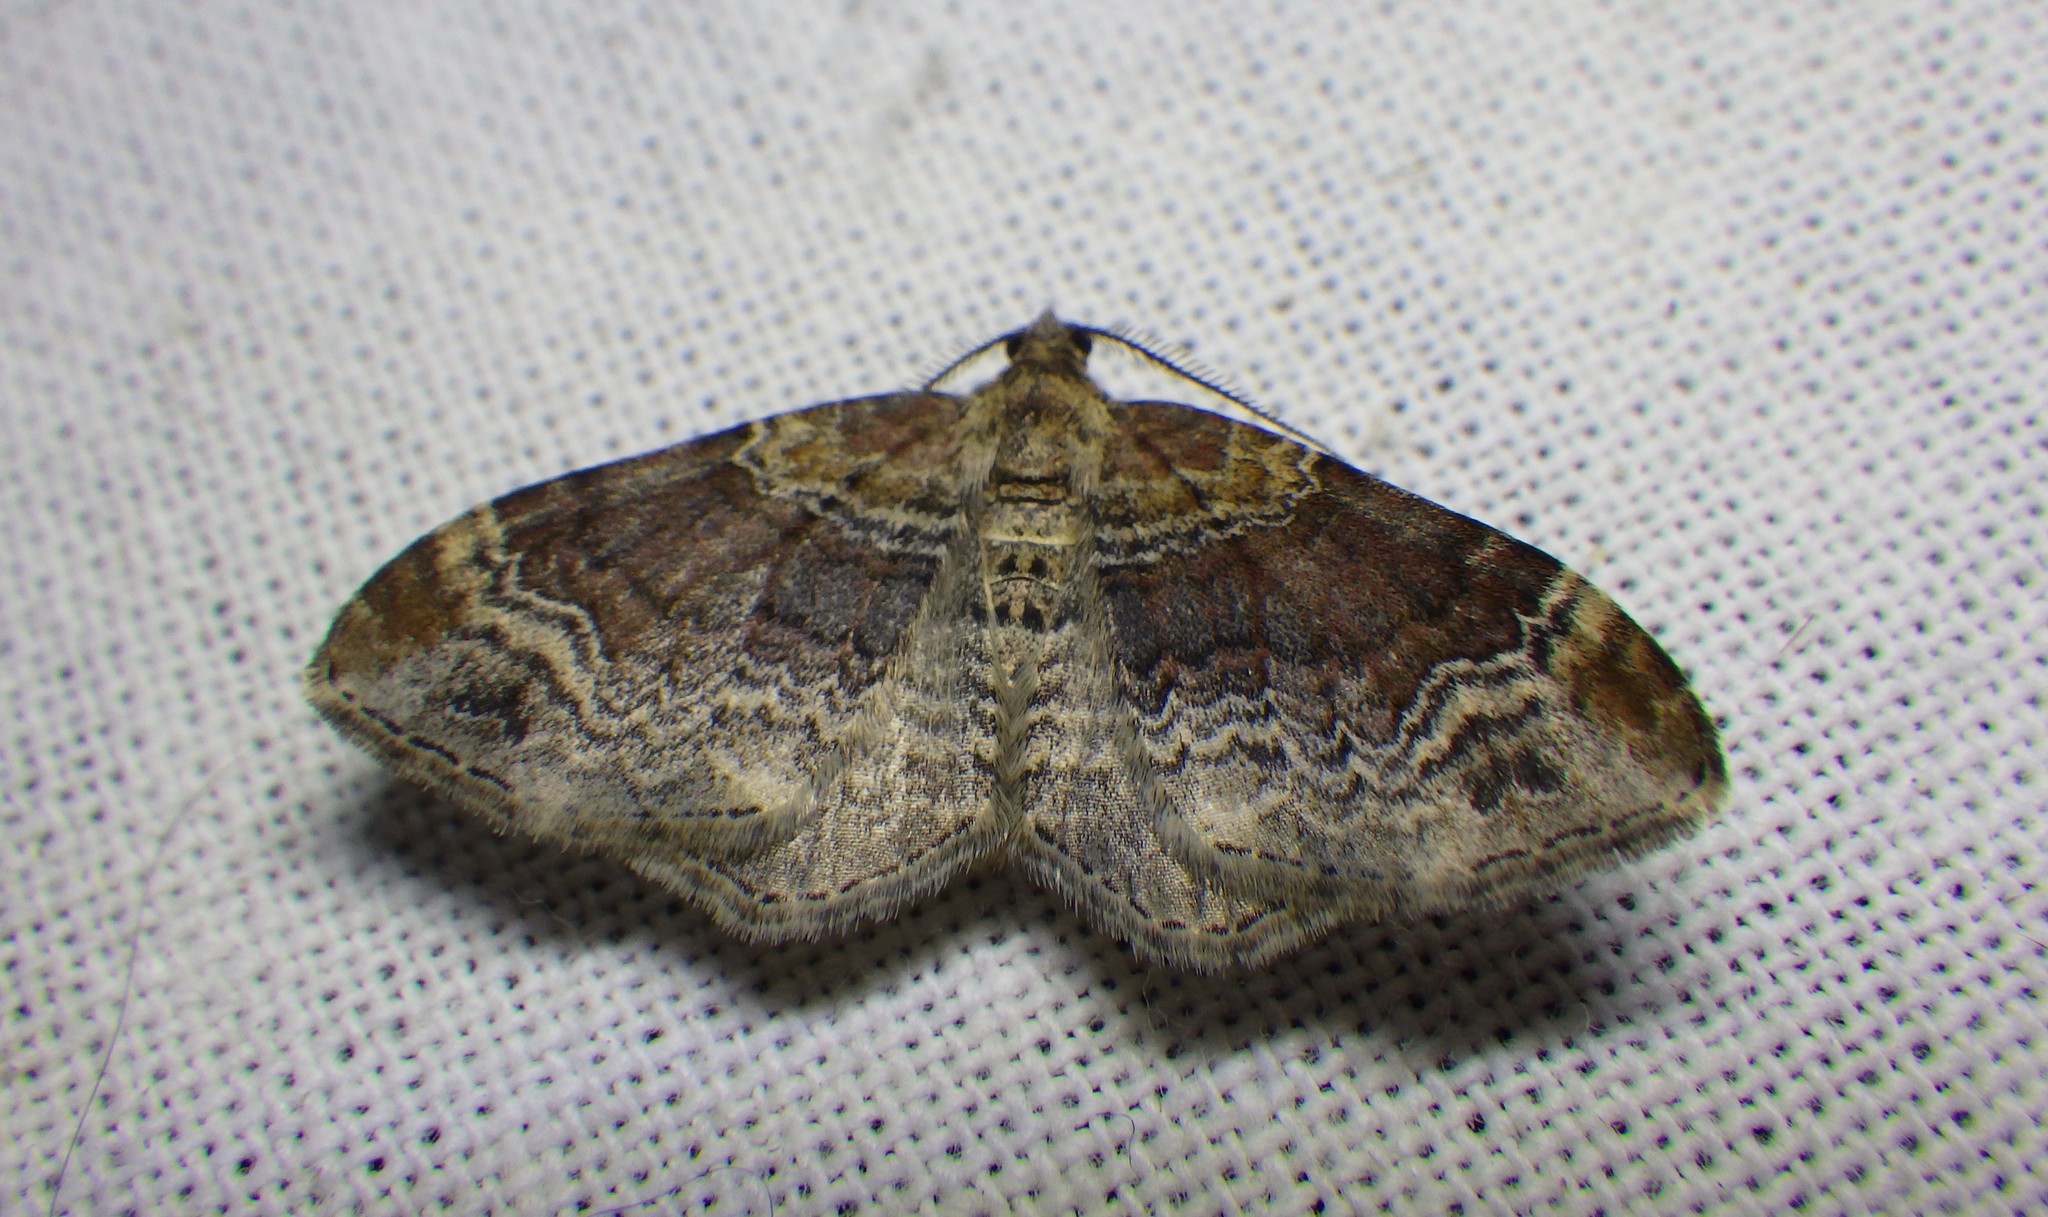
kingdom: Animalia
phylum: Arthropoda
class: Insecta
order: Lepidoptera
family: Geometridae
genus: Xanthorhoe
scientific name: Xanthorhoe ferrugata
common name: Dark-barred twin-spot carpet
